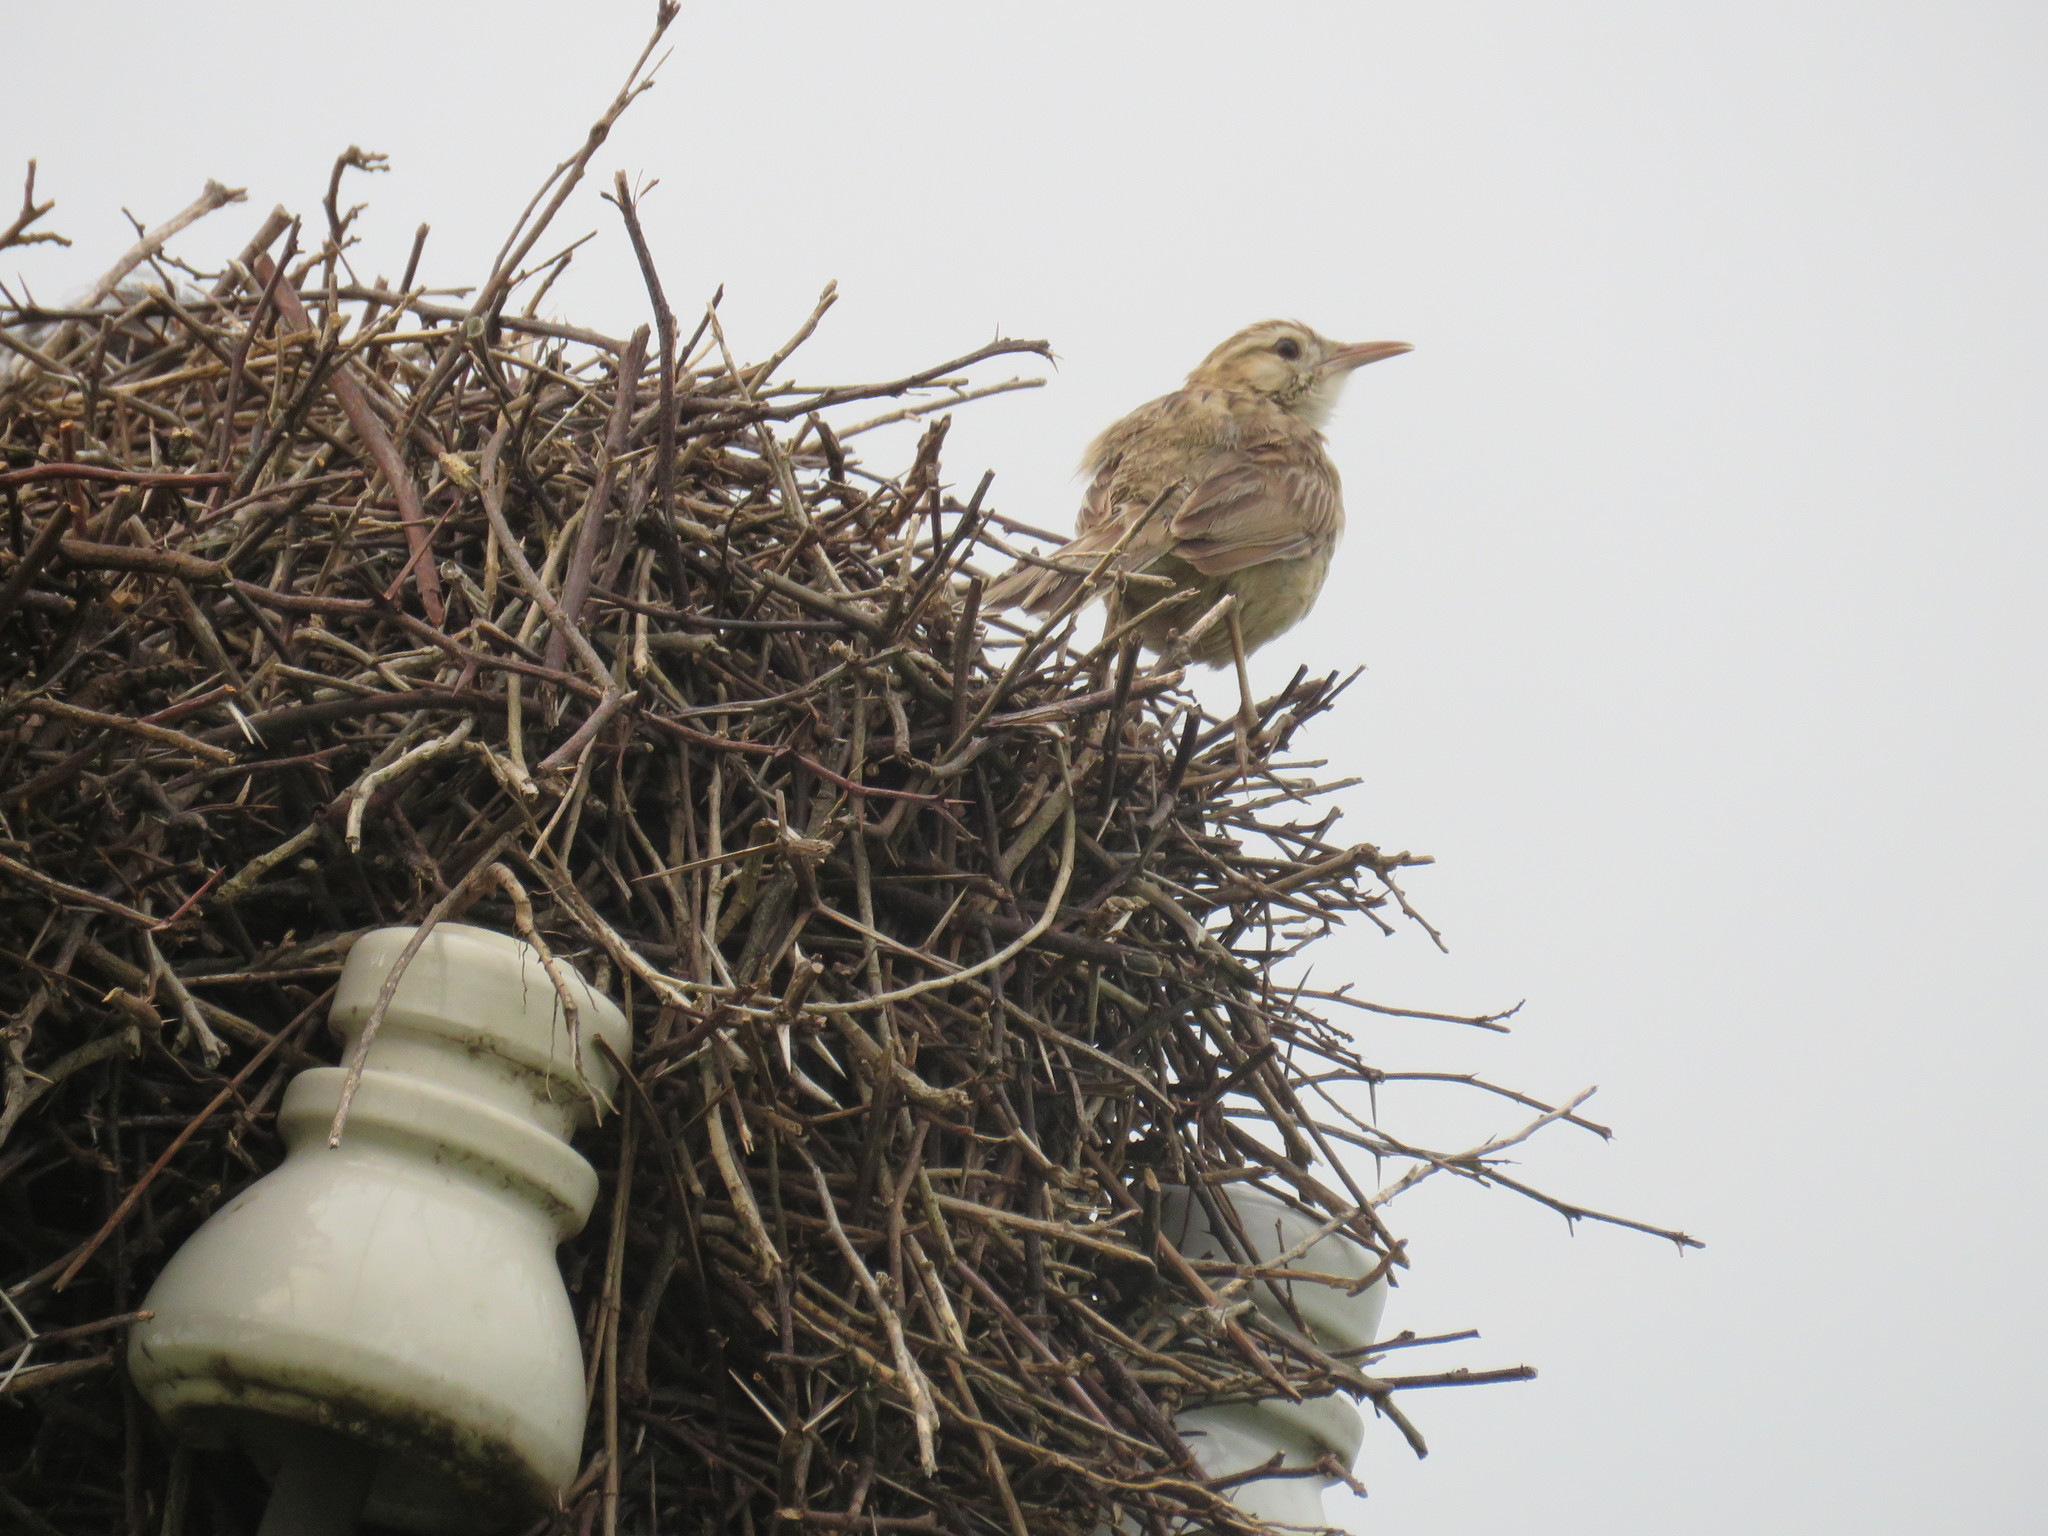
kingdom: Animalia
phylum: Chordata
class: Aves
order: Passeriformes
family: Furnariidae
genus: Anumbius
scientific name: Anumbius annumbi
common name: Firewood-gatherer
